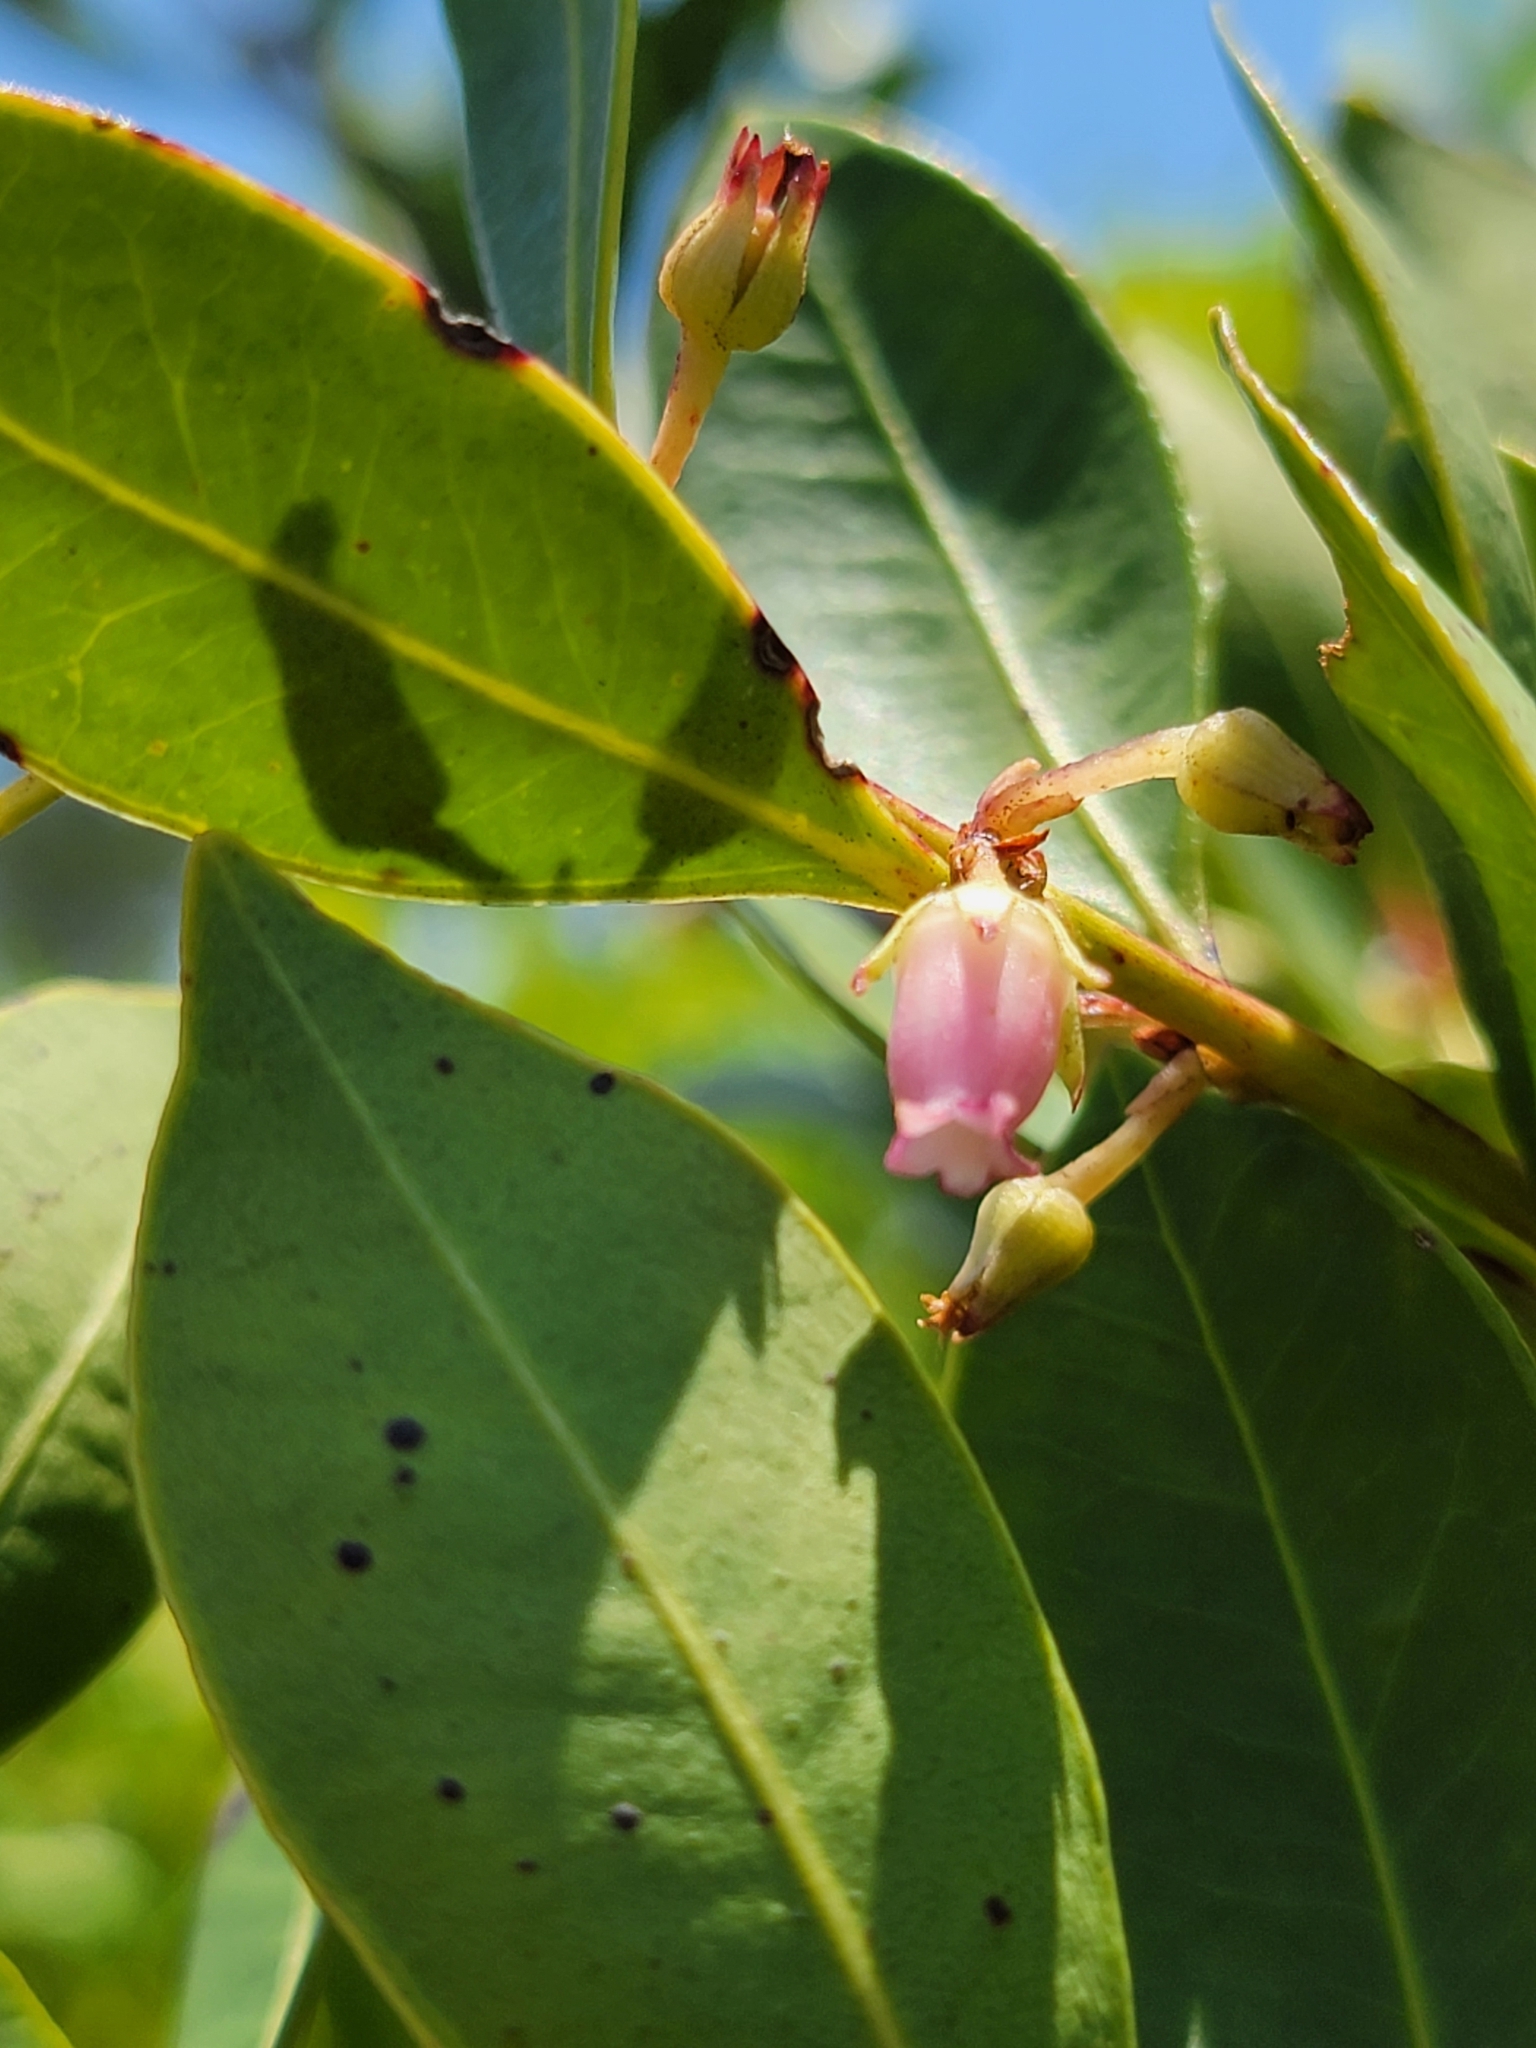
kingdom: Plantae
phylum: Tracheophyta
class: Magnoliopsida
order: Ericales
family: Ericaceae
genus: Lyonia
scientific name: Lyonia lucida
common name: Fetterbush
